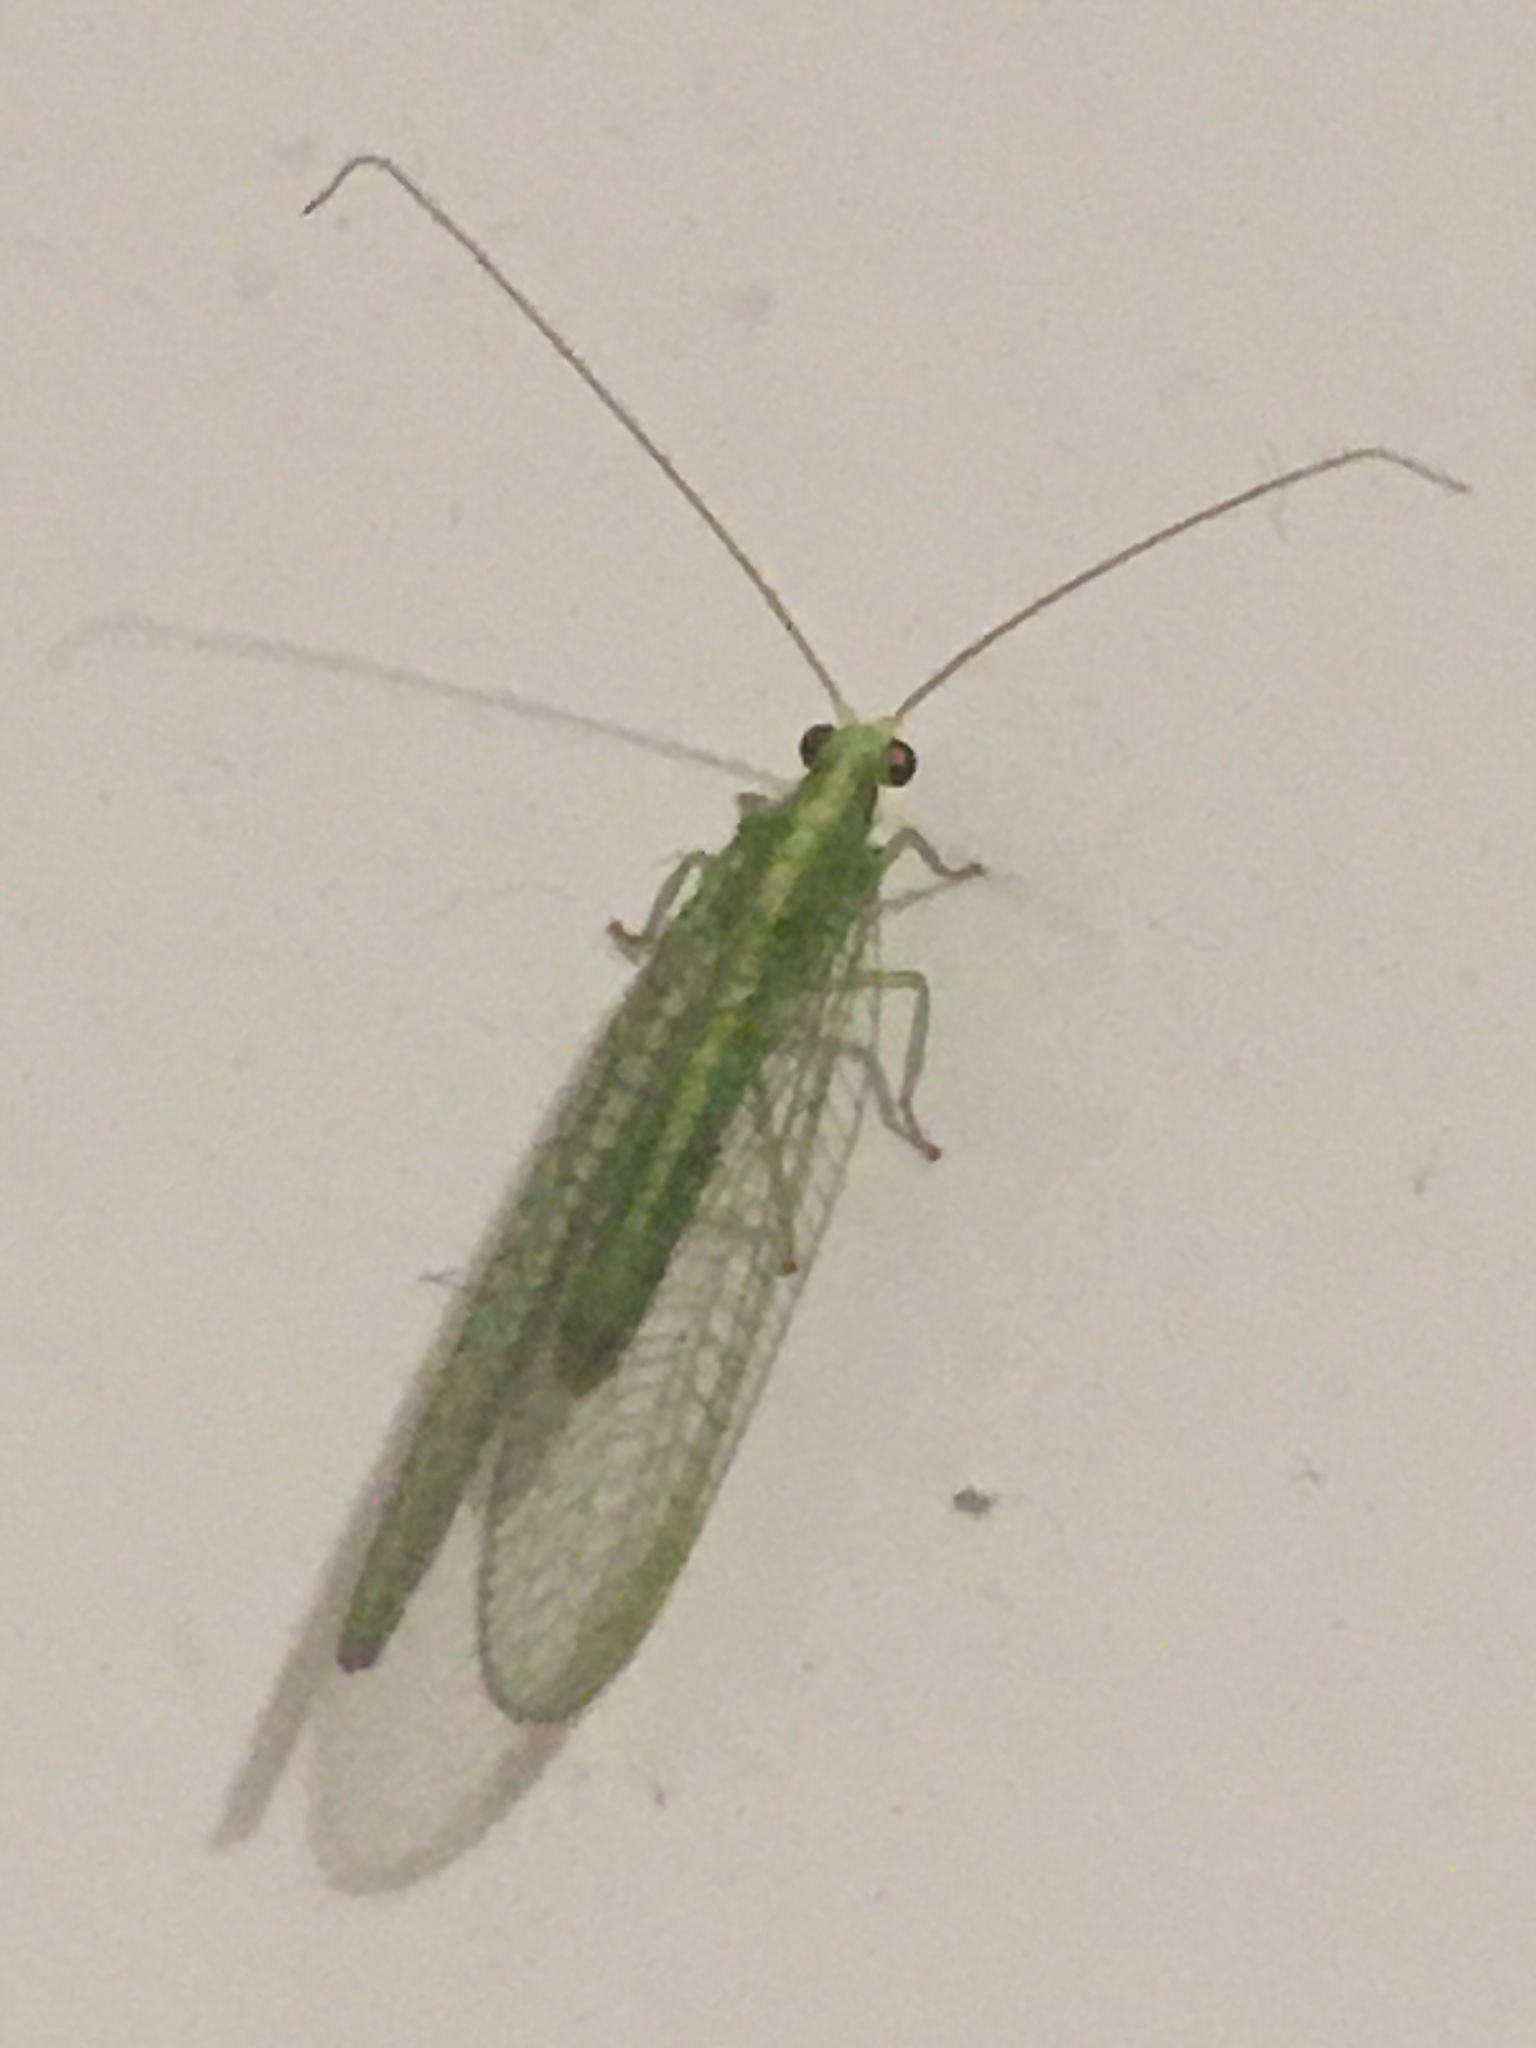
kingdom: Animalia
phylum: Arthropoda
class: Insecta
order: Neuroptera
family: Chrysopidae
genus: Chrysoperla
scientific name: Chrysoperla
